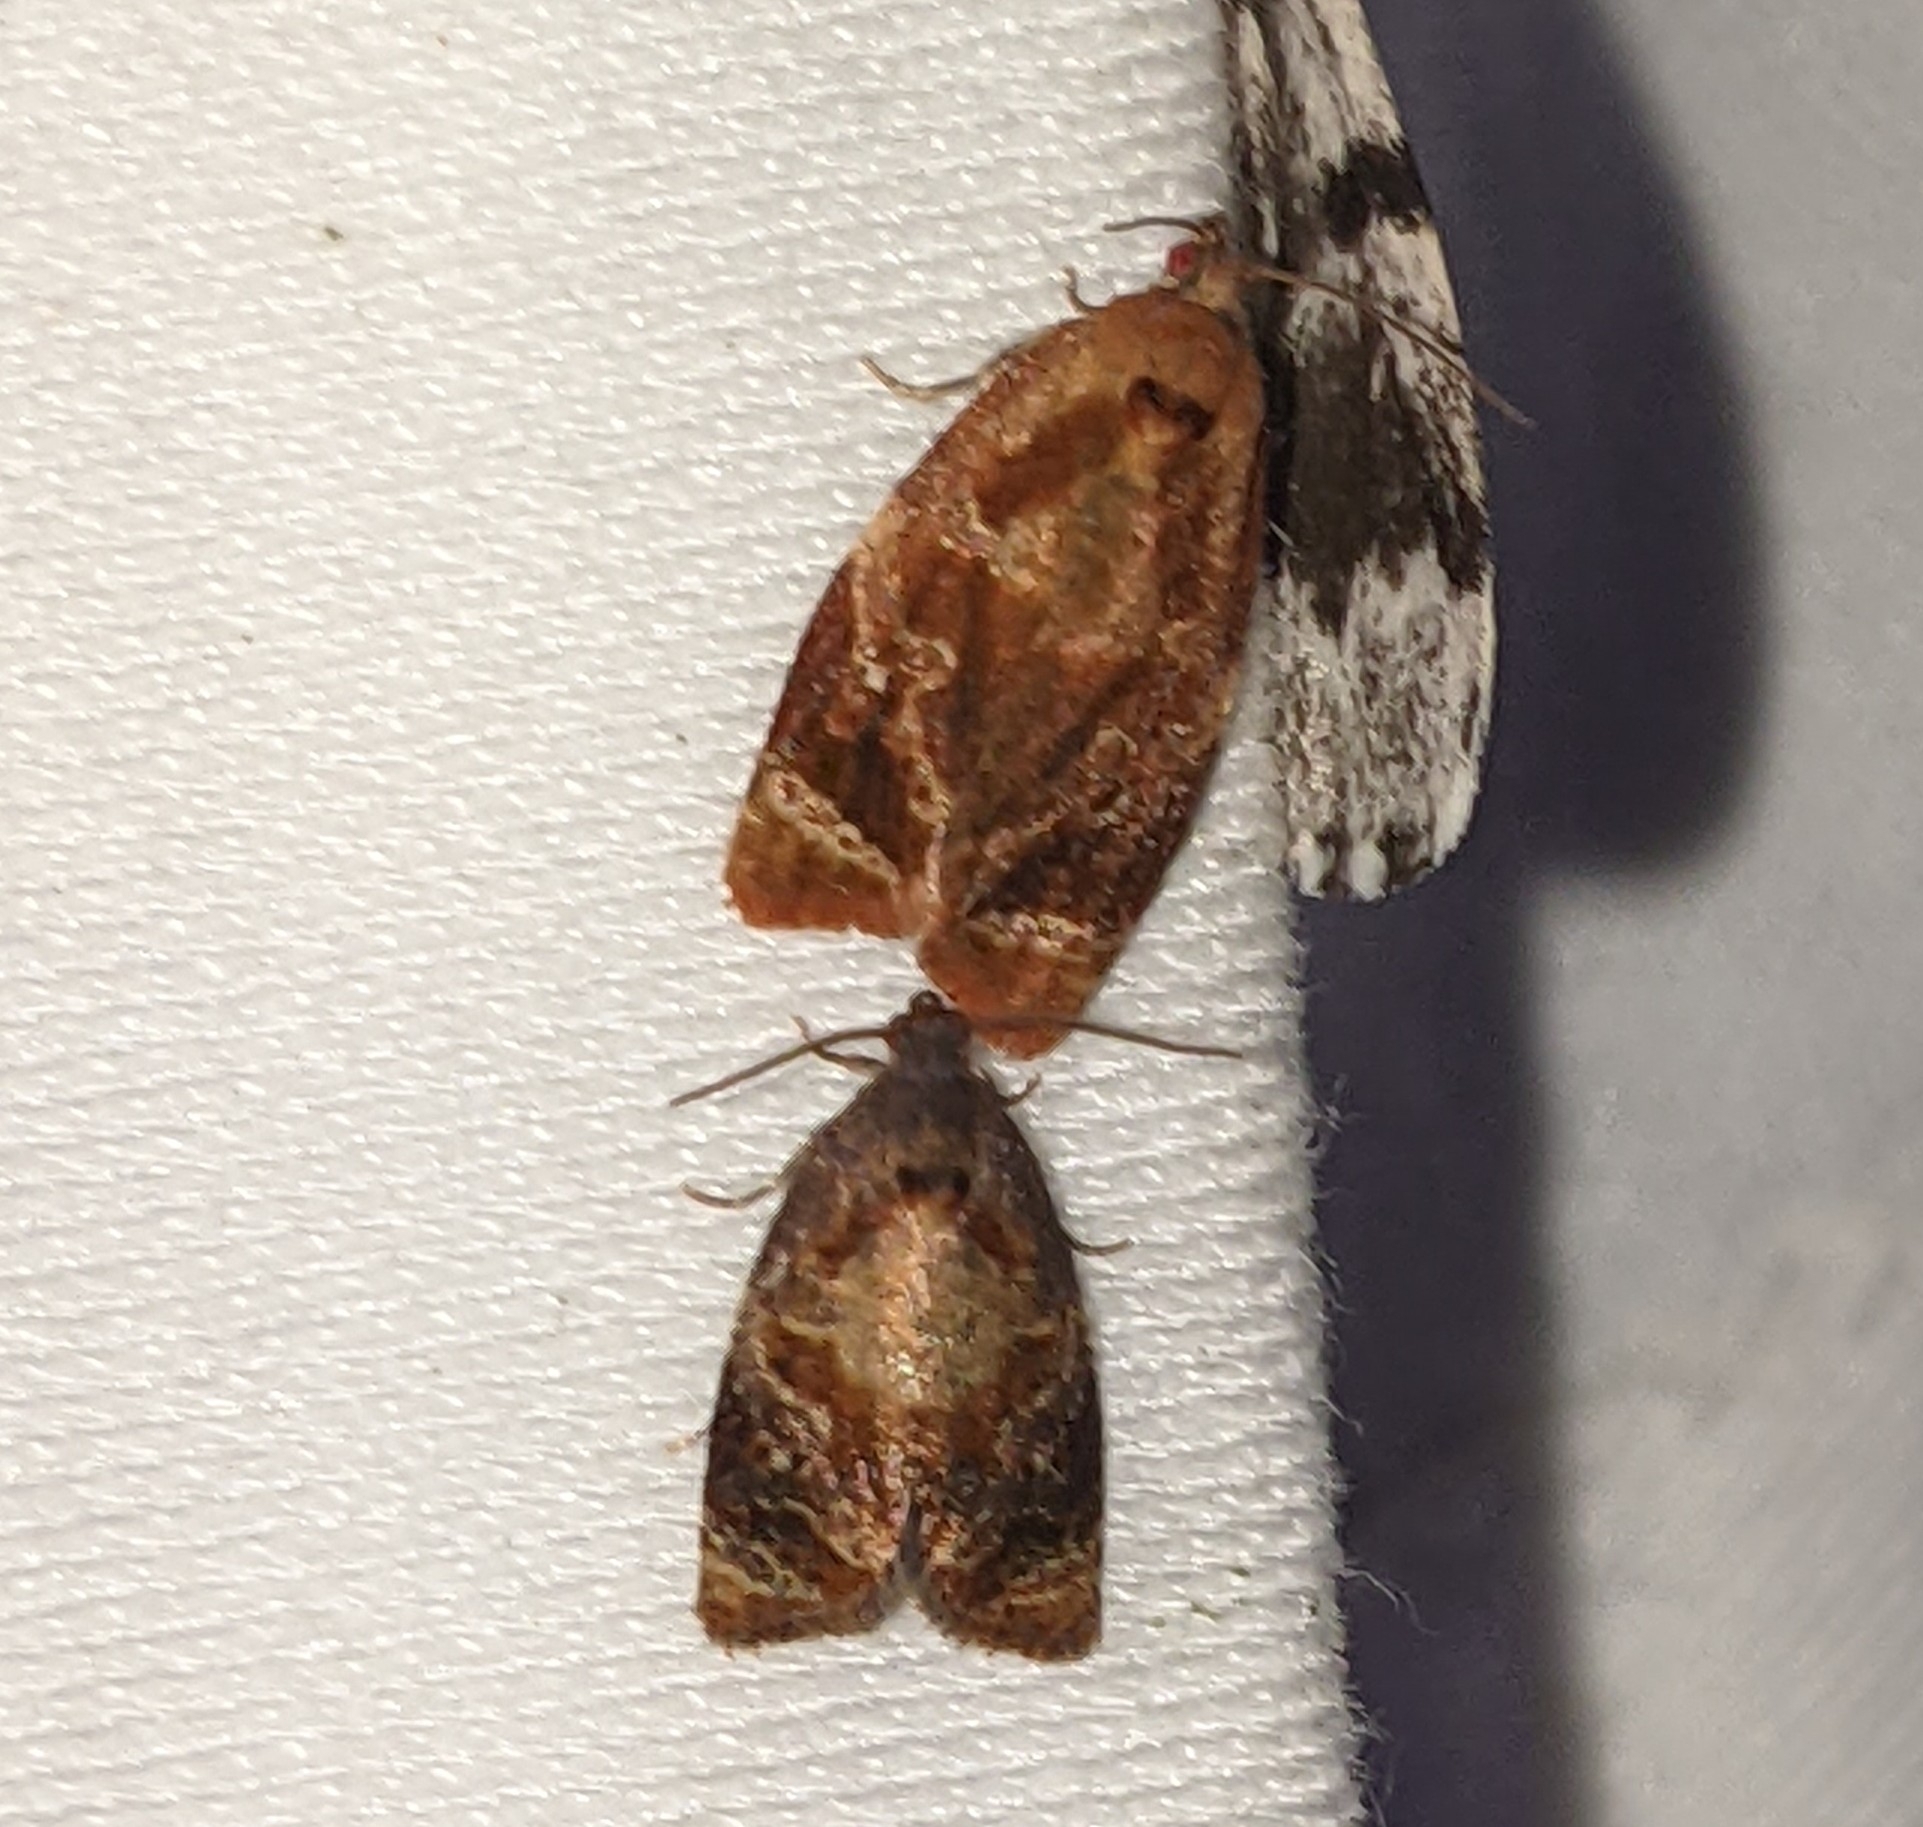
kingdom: Animalia
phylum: Arthropoda
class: Insecta
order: Lepidoptera
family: Tortricidae
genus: Ditula
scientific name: Ditula angustiorana
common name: Red-barred tortrix
